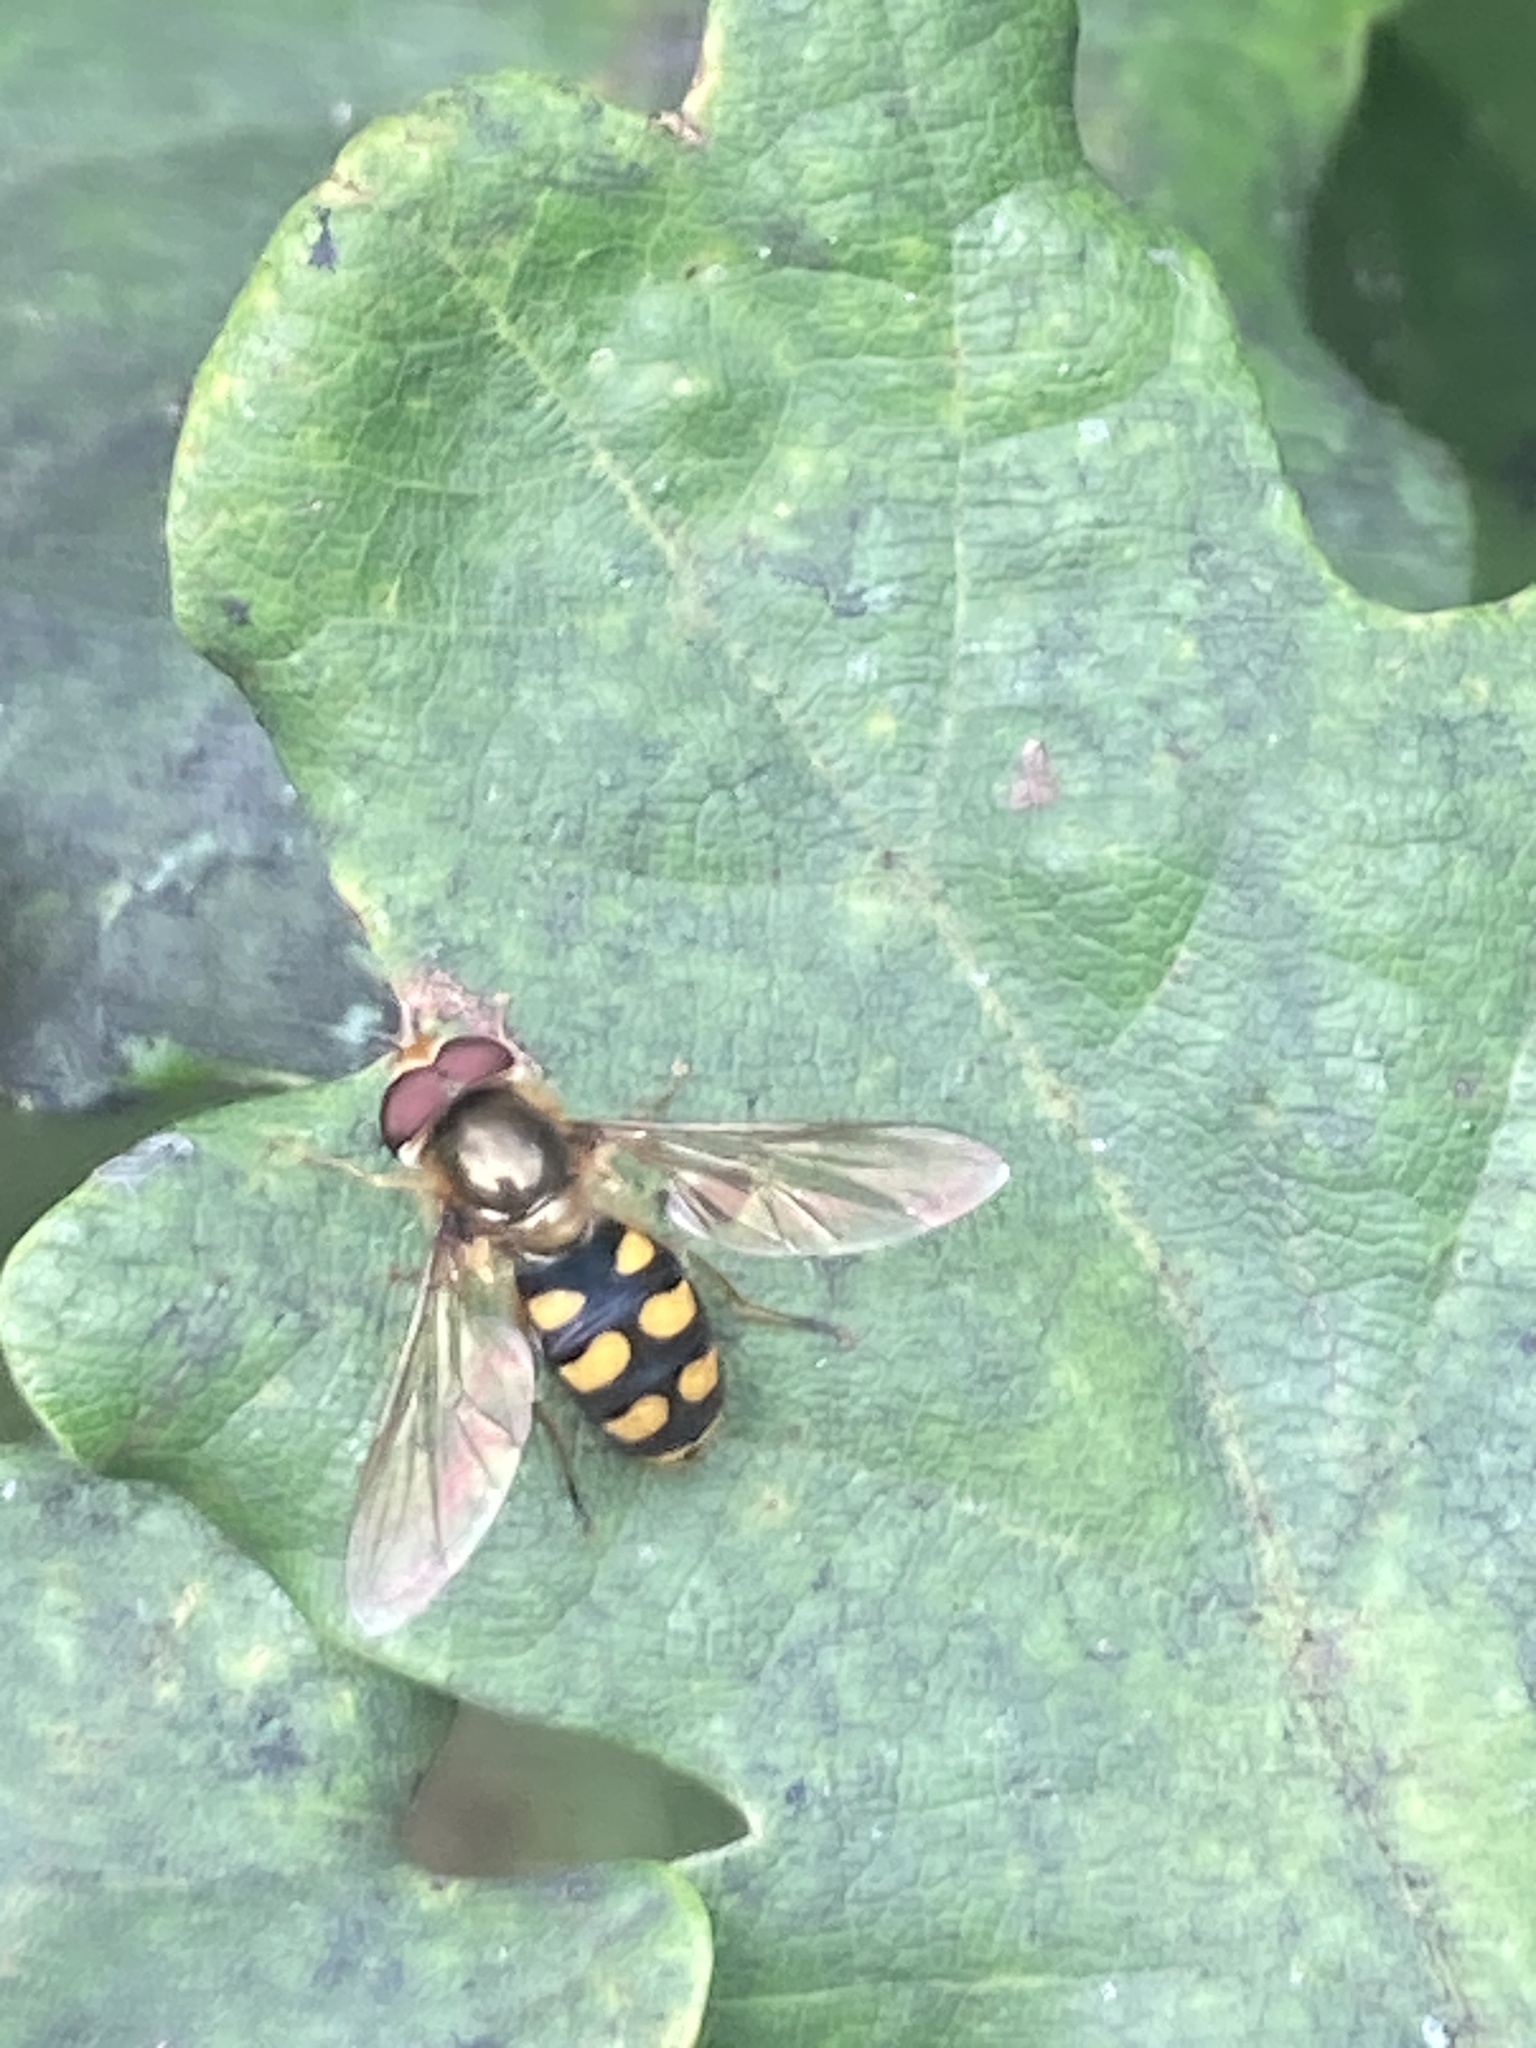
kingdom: Animalia
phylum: Arthropoda
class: Insecta
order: Diptera
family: Syrphidae
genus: Eupeodes
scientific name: Eupeodes
